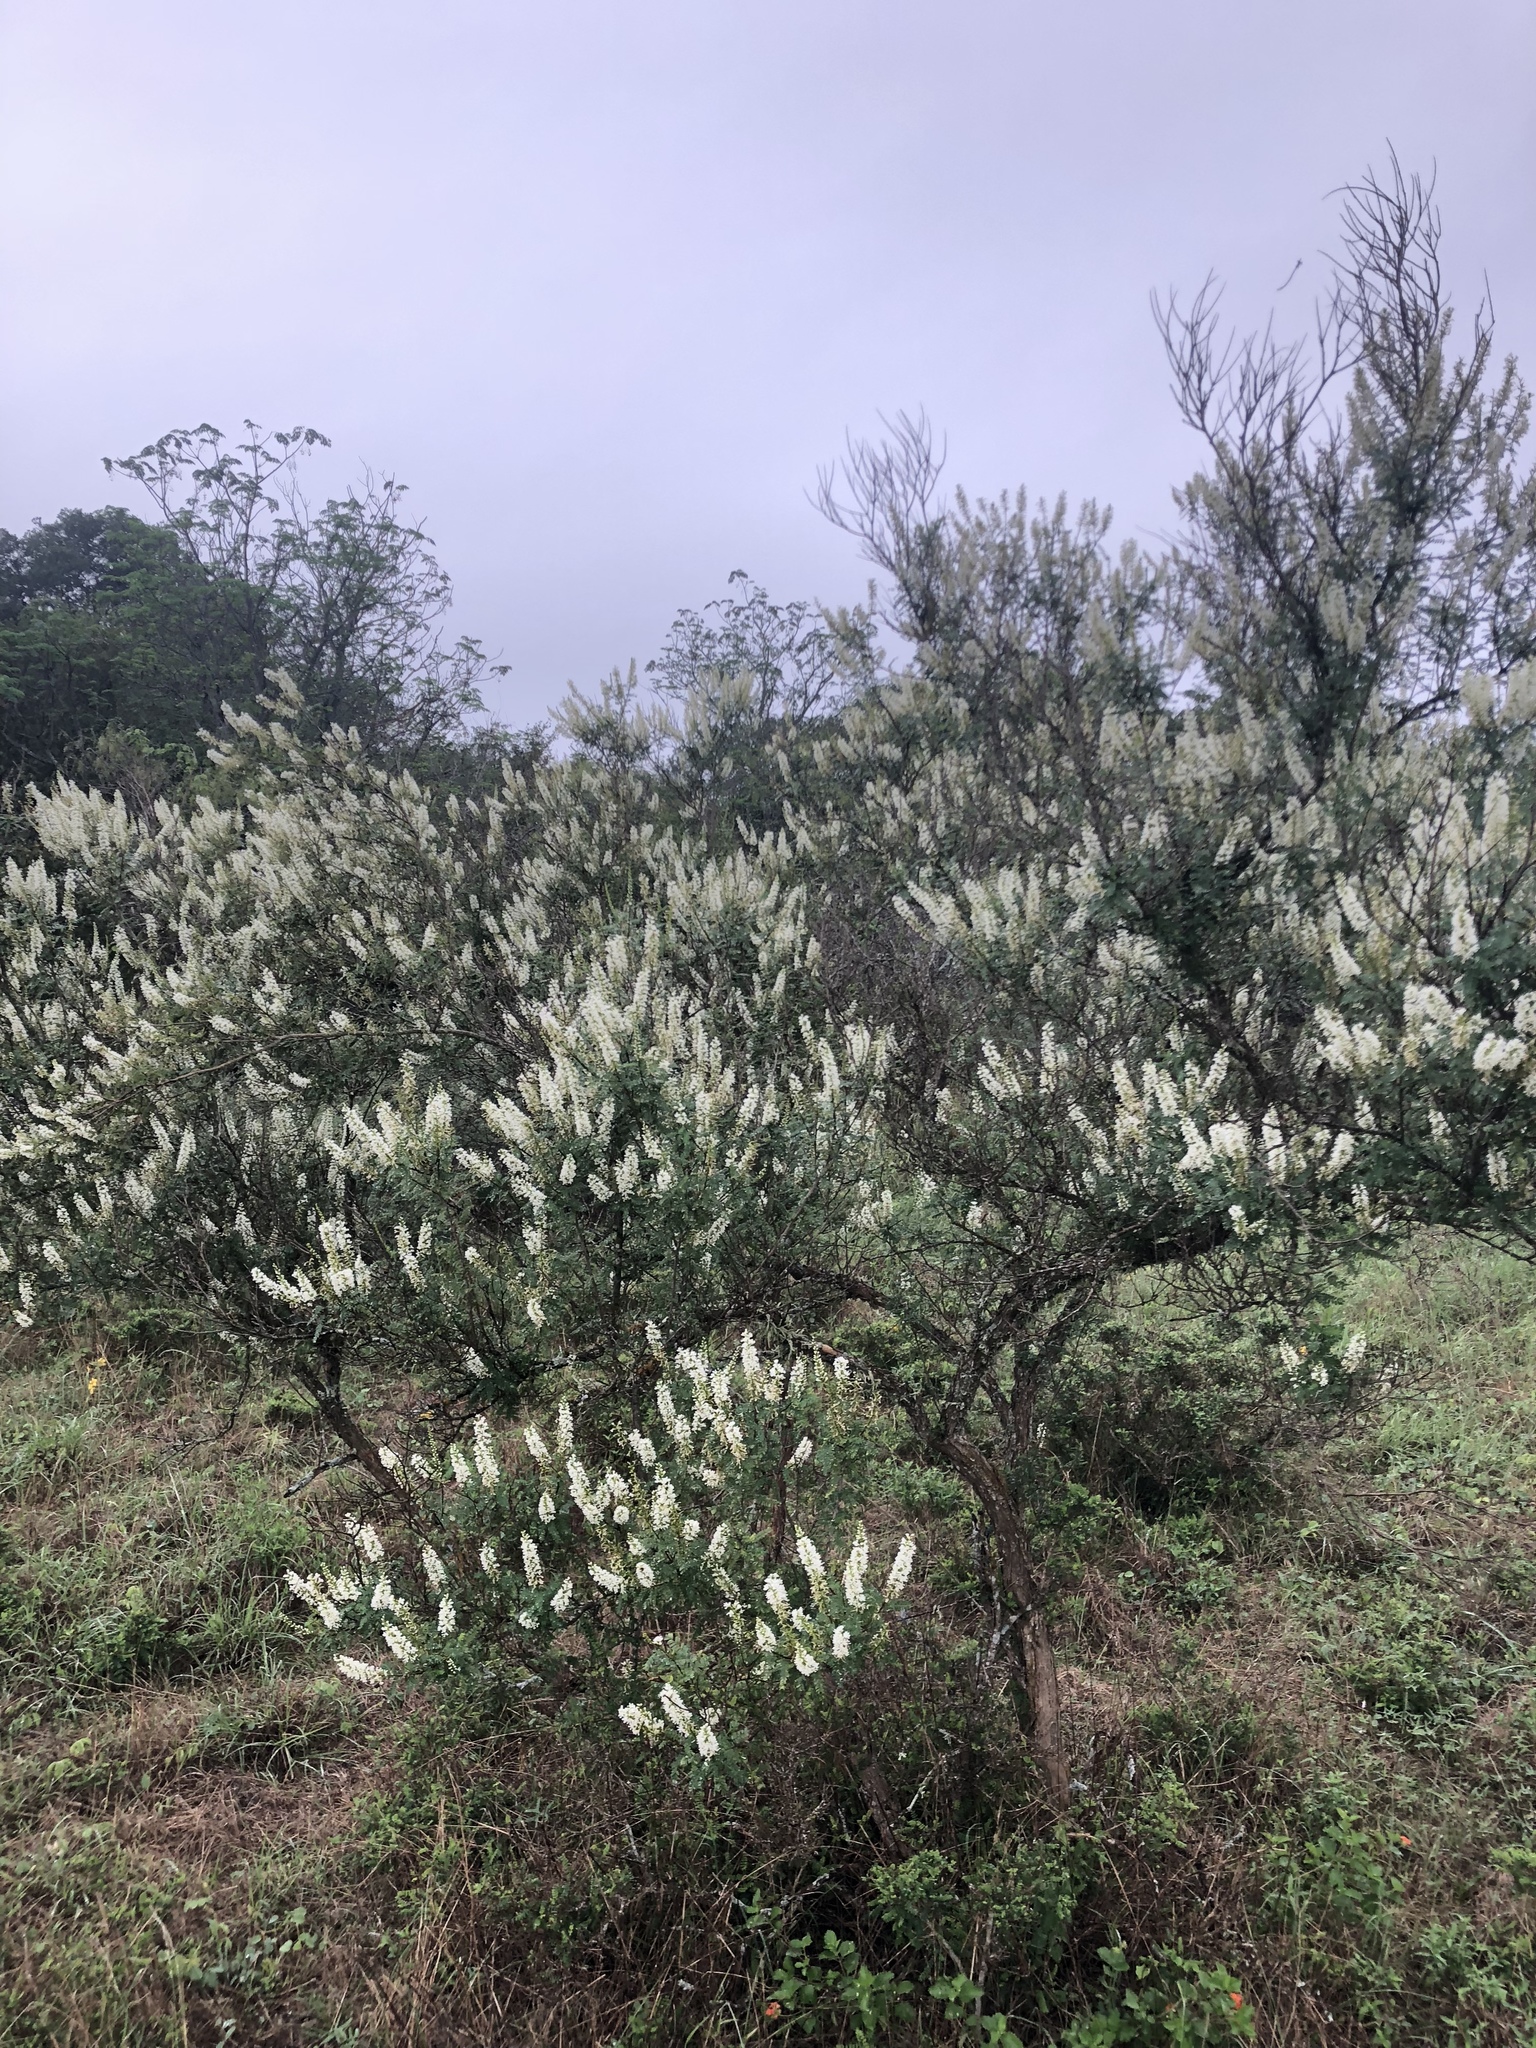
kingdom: Plantae
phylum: Tracheophyta
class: Magnoliopsida
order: Fabales
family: Fabaceae
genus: Eysenhardtia
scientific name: Eysenhardtia texana
